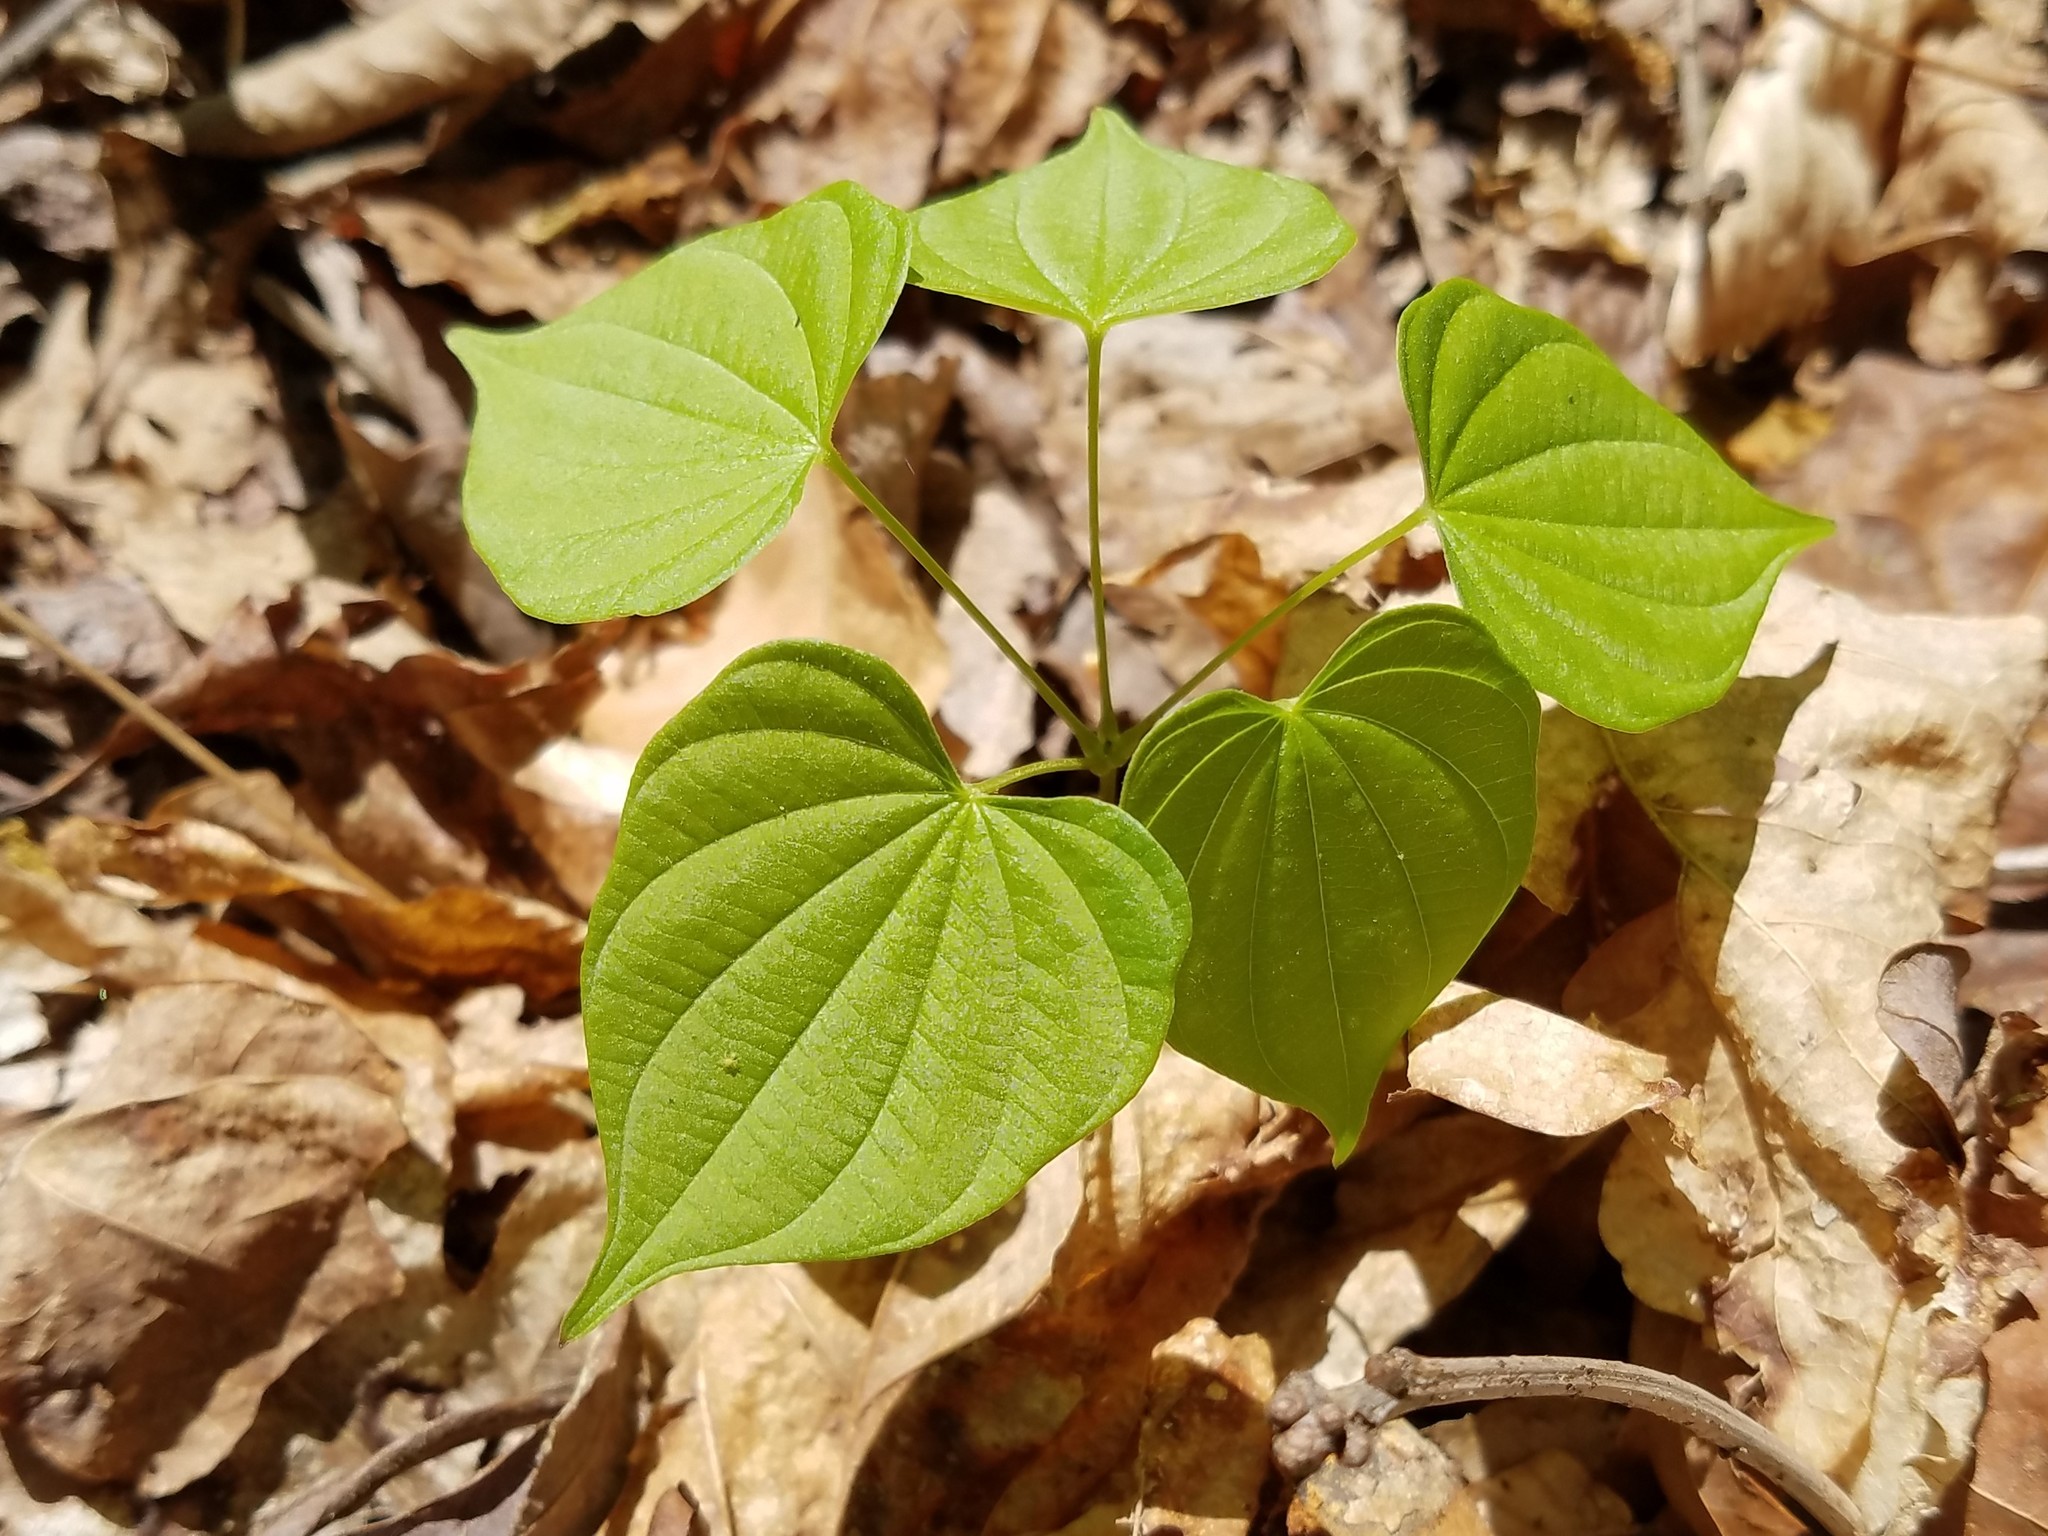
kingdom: Plantae
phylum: Tracheophyta
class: Liliopsida
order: Dioscoreales
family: Dioscoreaceae
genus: Dioscorea
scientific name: Dioscorea villosa
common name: Wild yam
